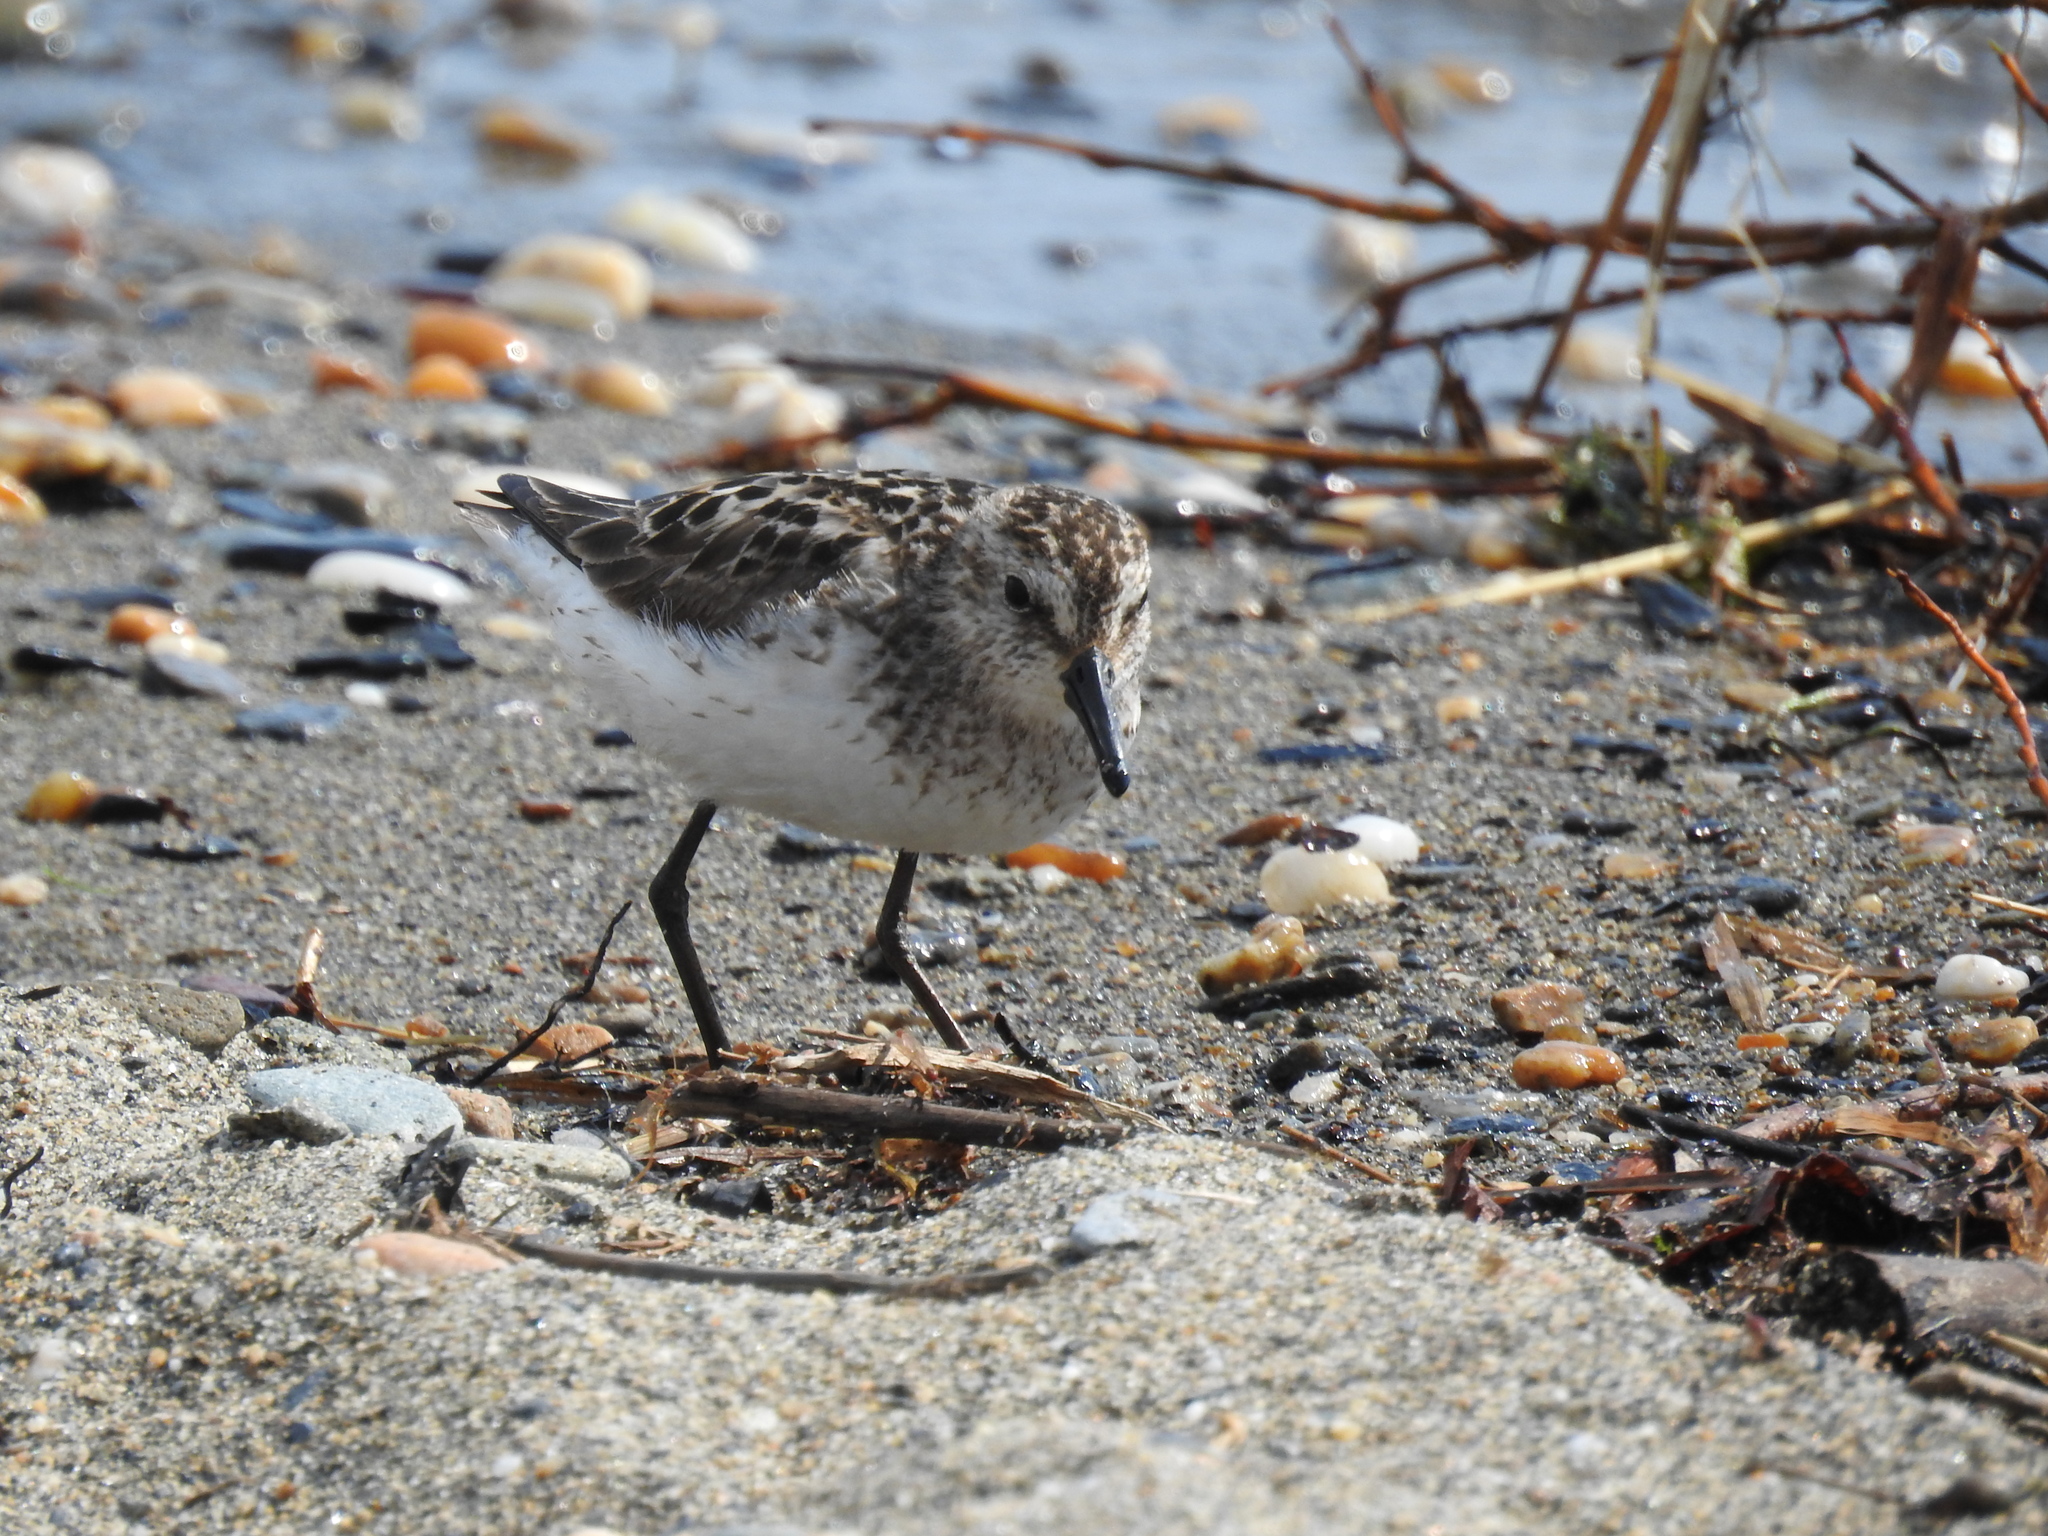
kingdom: Animalia
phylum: Chordata
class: Aves
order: Charadriiformes
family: Scolopacidae
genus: Calidris
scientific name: Calidris pusilla
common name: Semipalmated sandpiper
